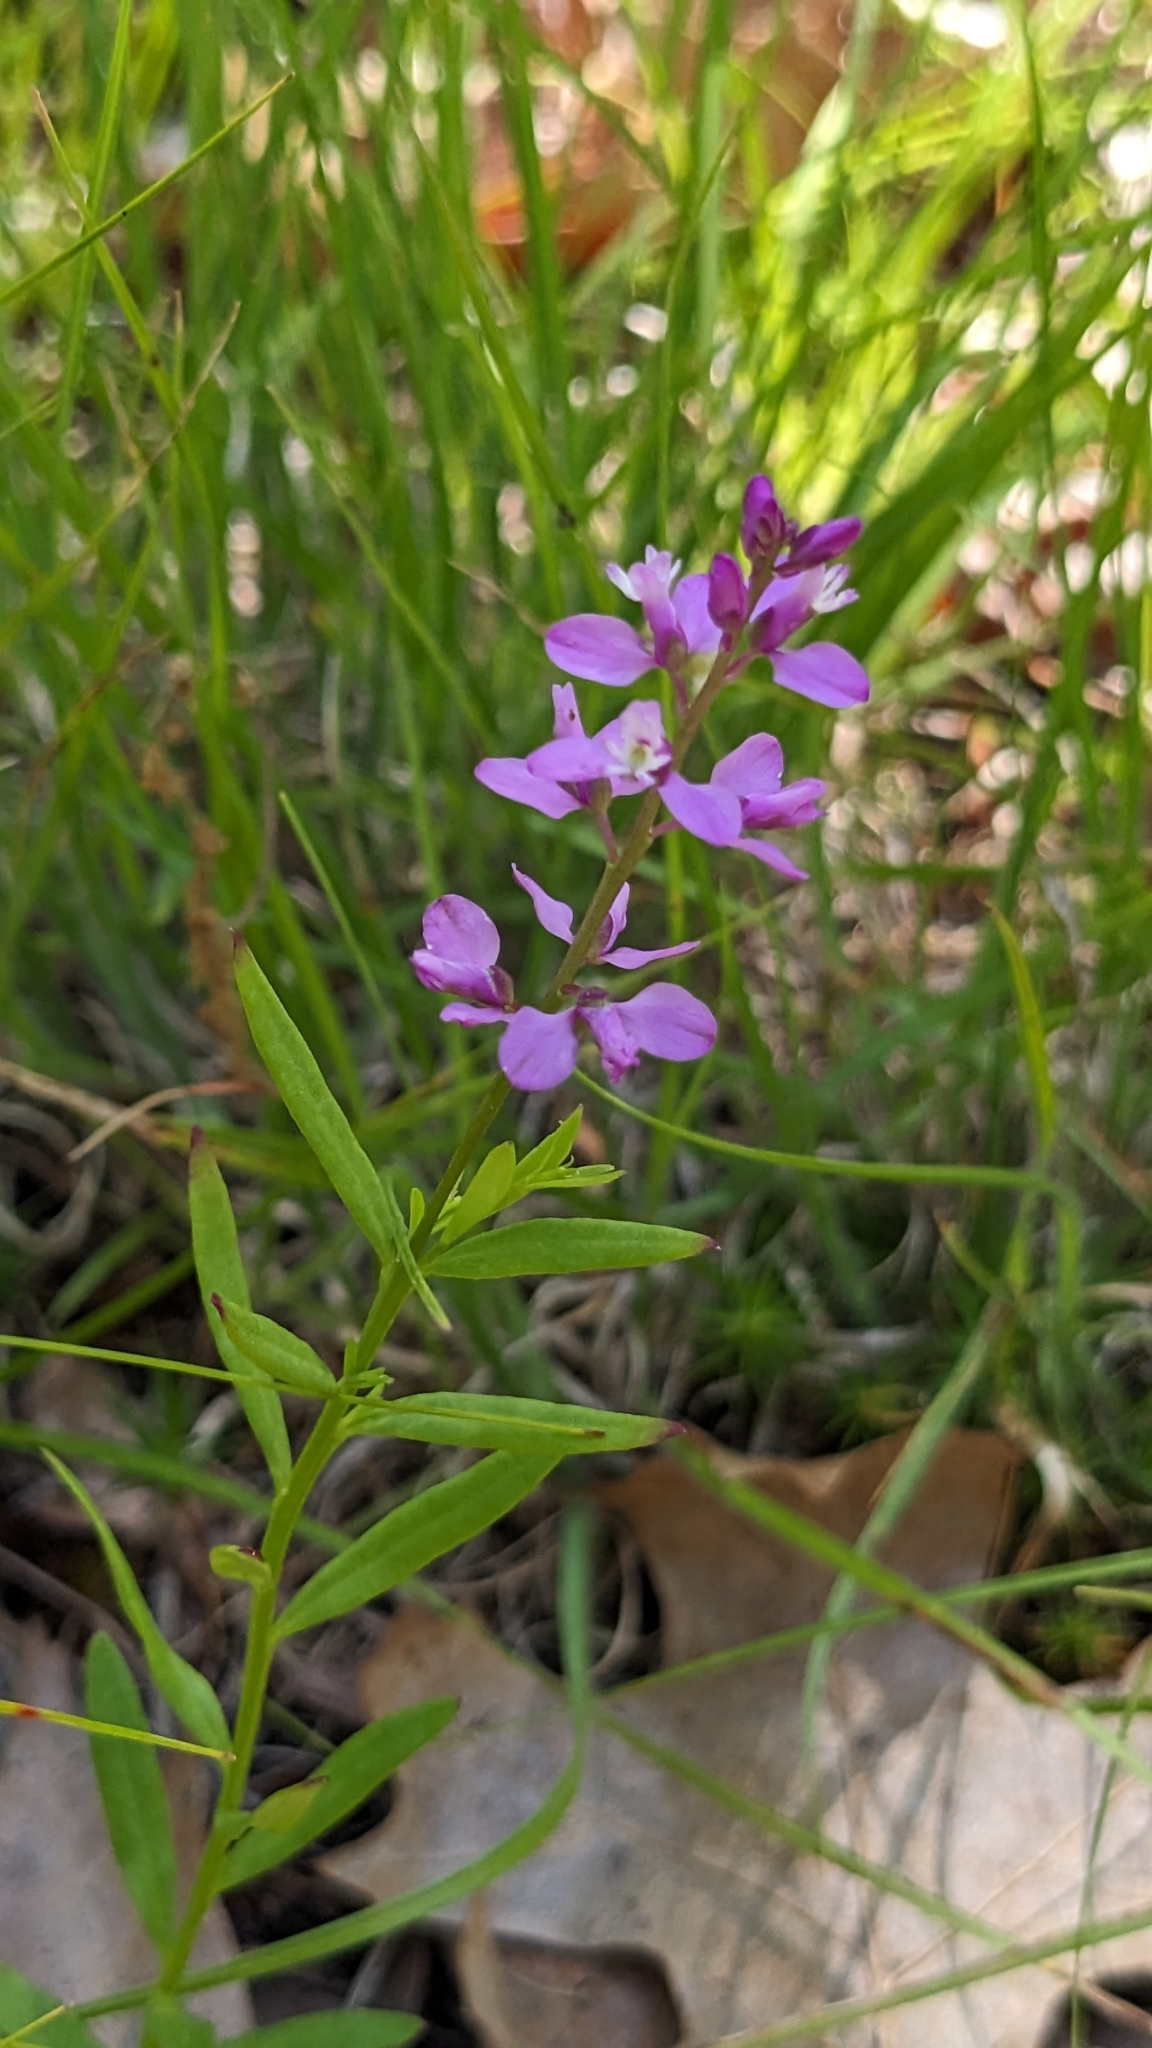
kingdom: Plantae
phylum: Tracheophyta
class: Magnoliopsida
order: Fabales
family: Polygalaceae
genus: Polygala
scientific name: Polygala polygama
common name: Bitter milkwort
